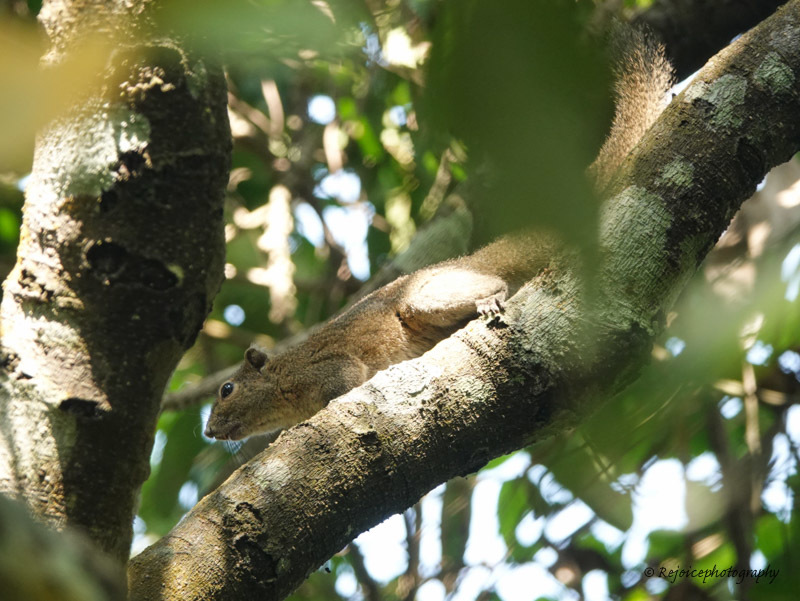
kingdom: Animalia
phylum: Chordata
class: Mammalia
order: Rodentia
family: Sciuridae
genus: Callosciurus
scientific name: Callosciurus pygerythrus
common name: Irrawaddy squirrel
